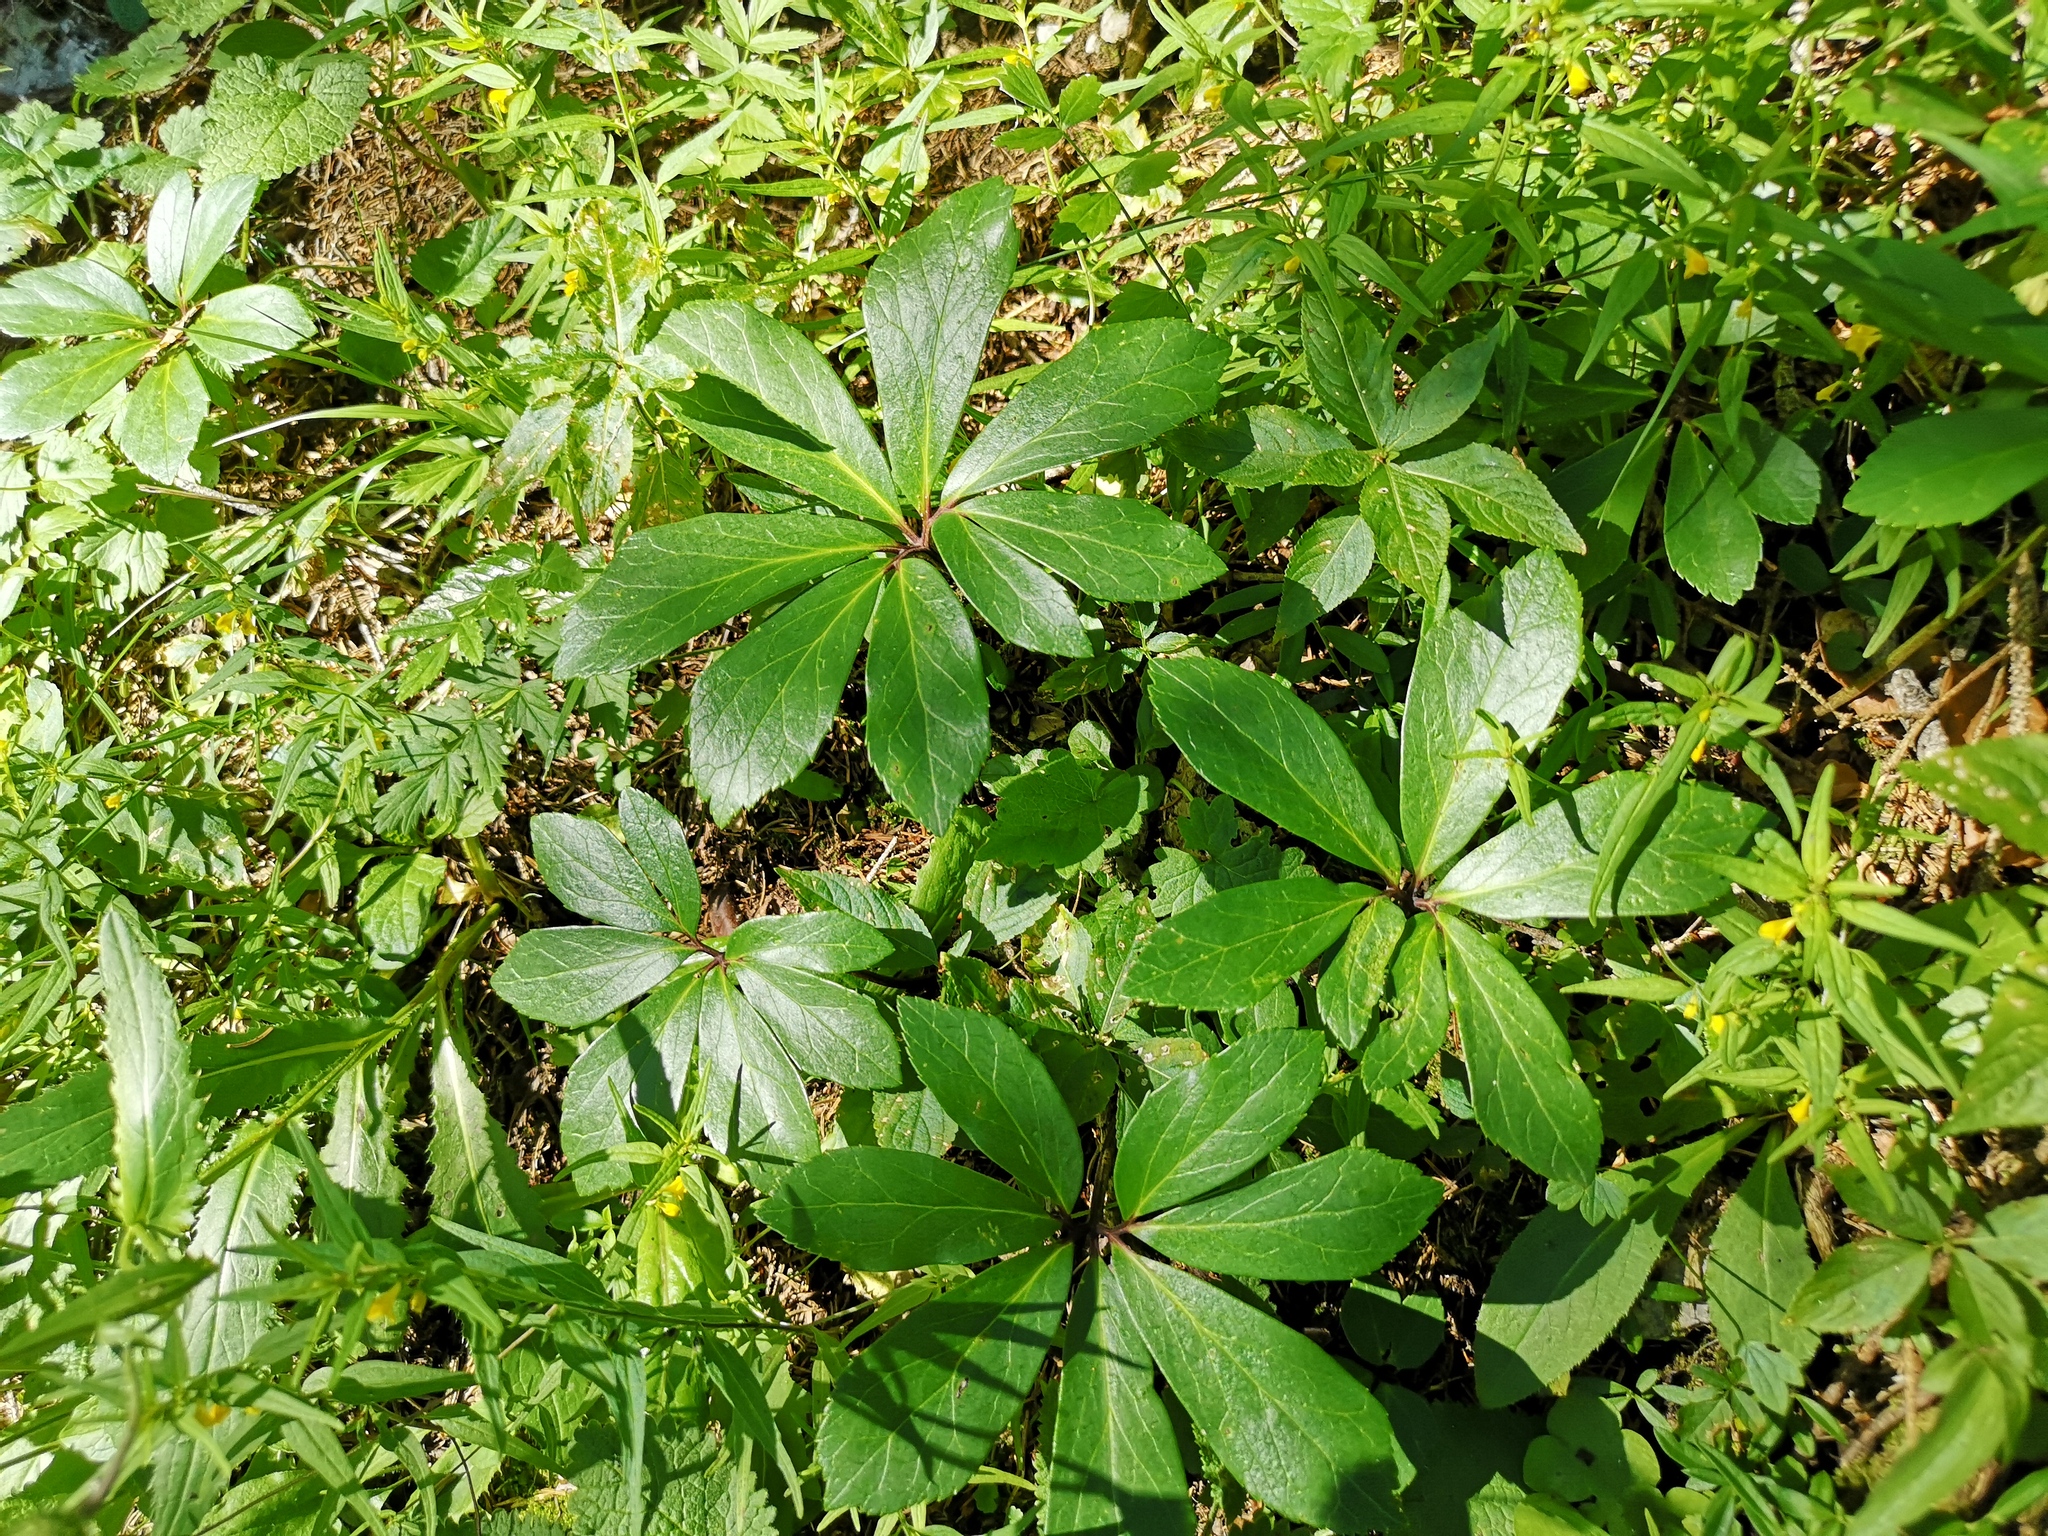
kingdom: Plantae
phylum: Tracheophyta
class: Magnoliopsida
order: Ranunculales
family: Ranunculaceae
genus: Helleborus
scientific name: Helleborus niger
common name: Black hellebore
